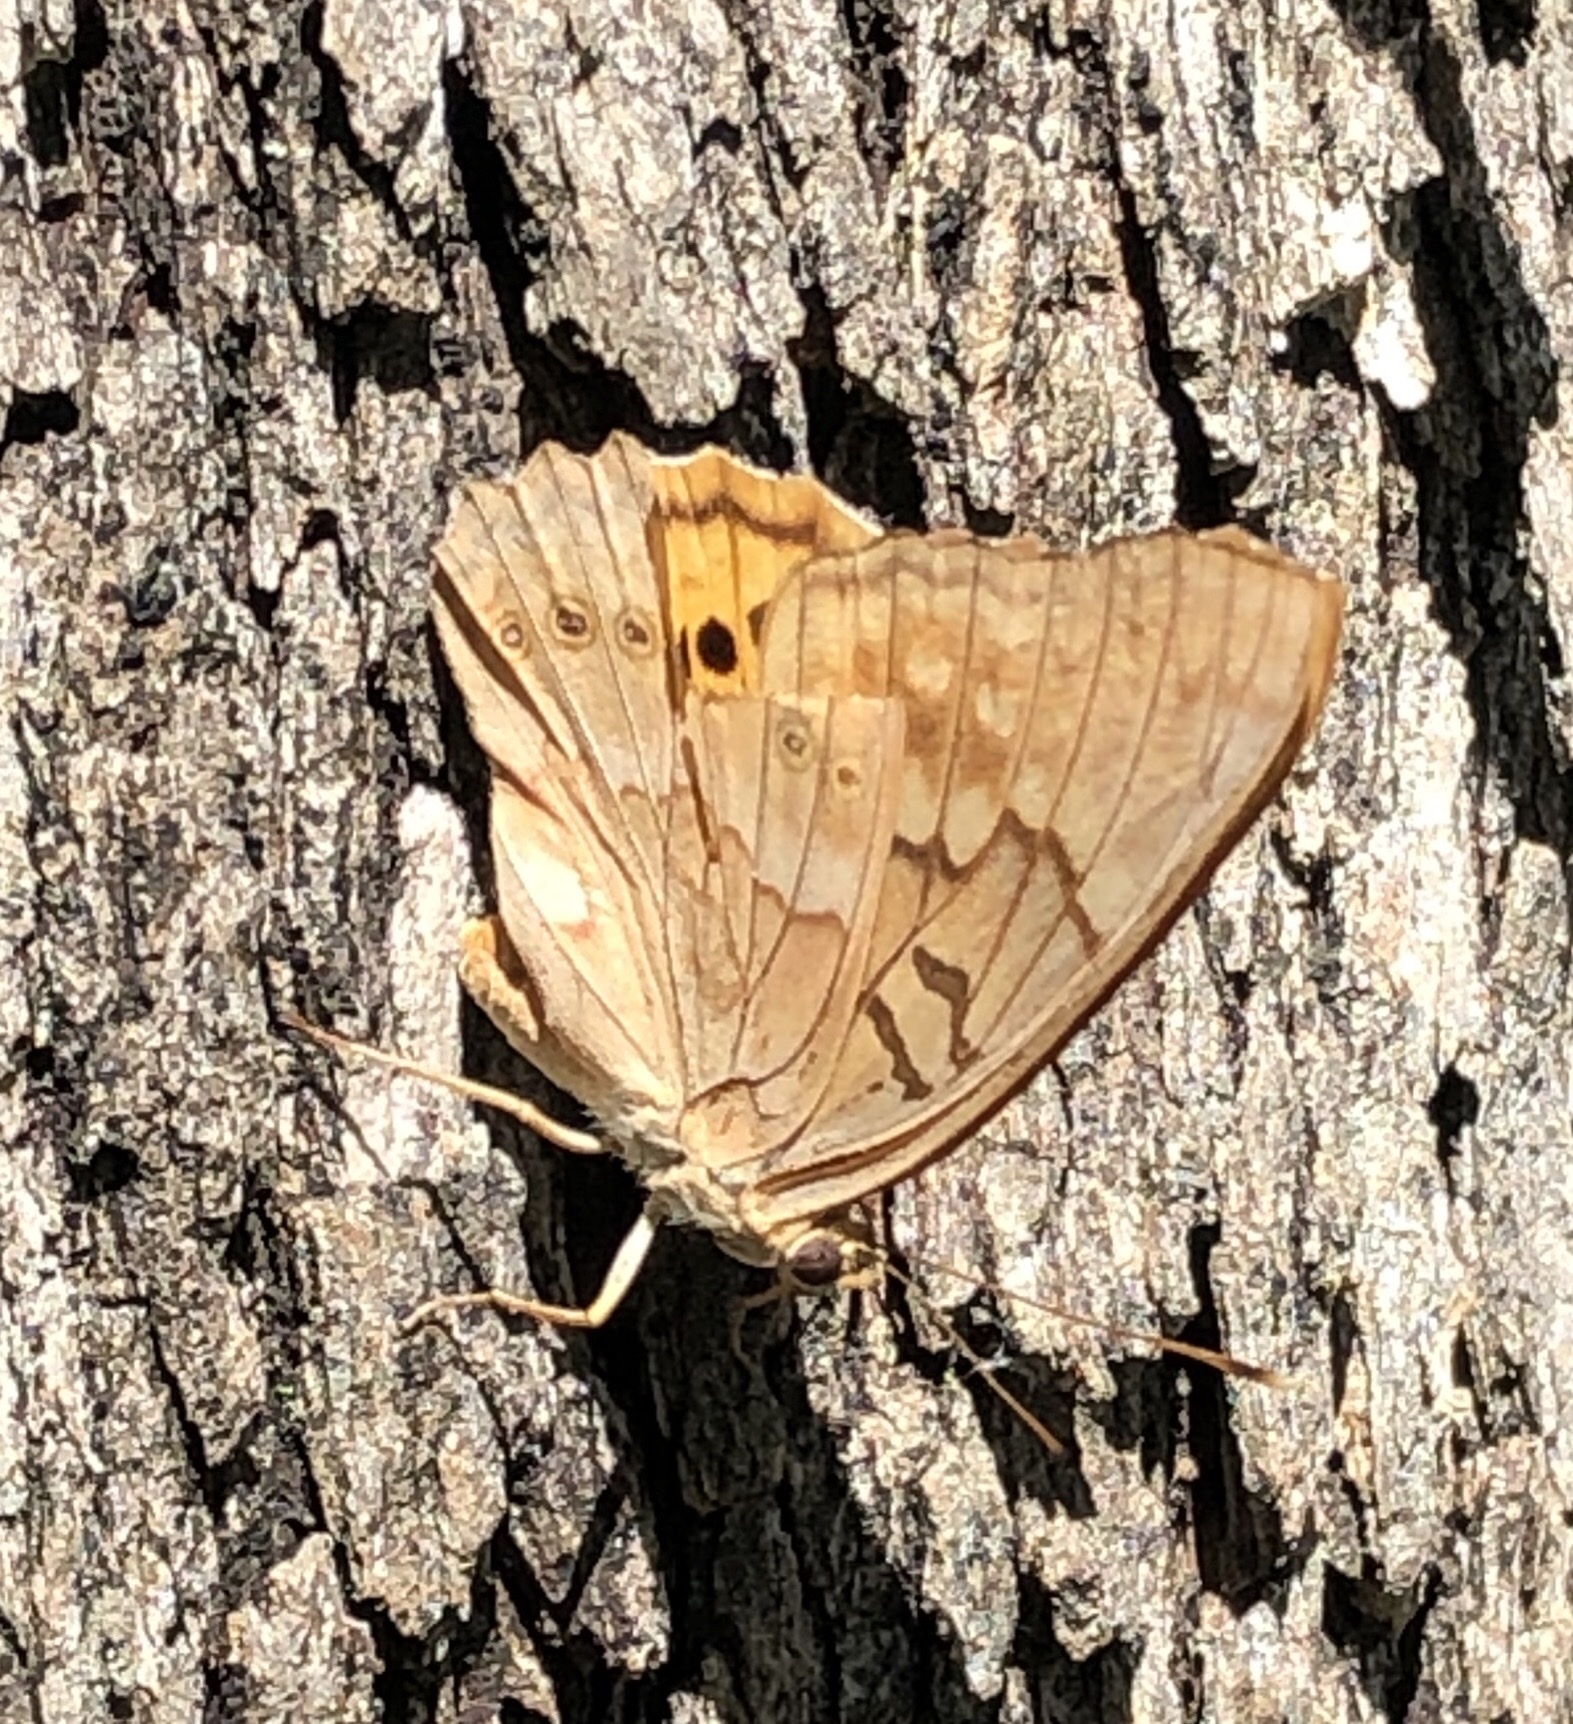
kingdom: Animalia
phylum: Arthropoda
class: Insecta
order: Lepidoptera
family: Nymphalidae
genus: Asterocampa
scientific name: Asterocampa clyton
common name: Tawny emperor
